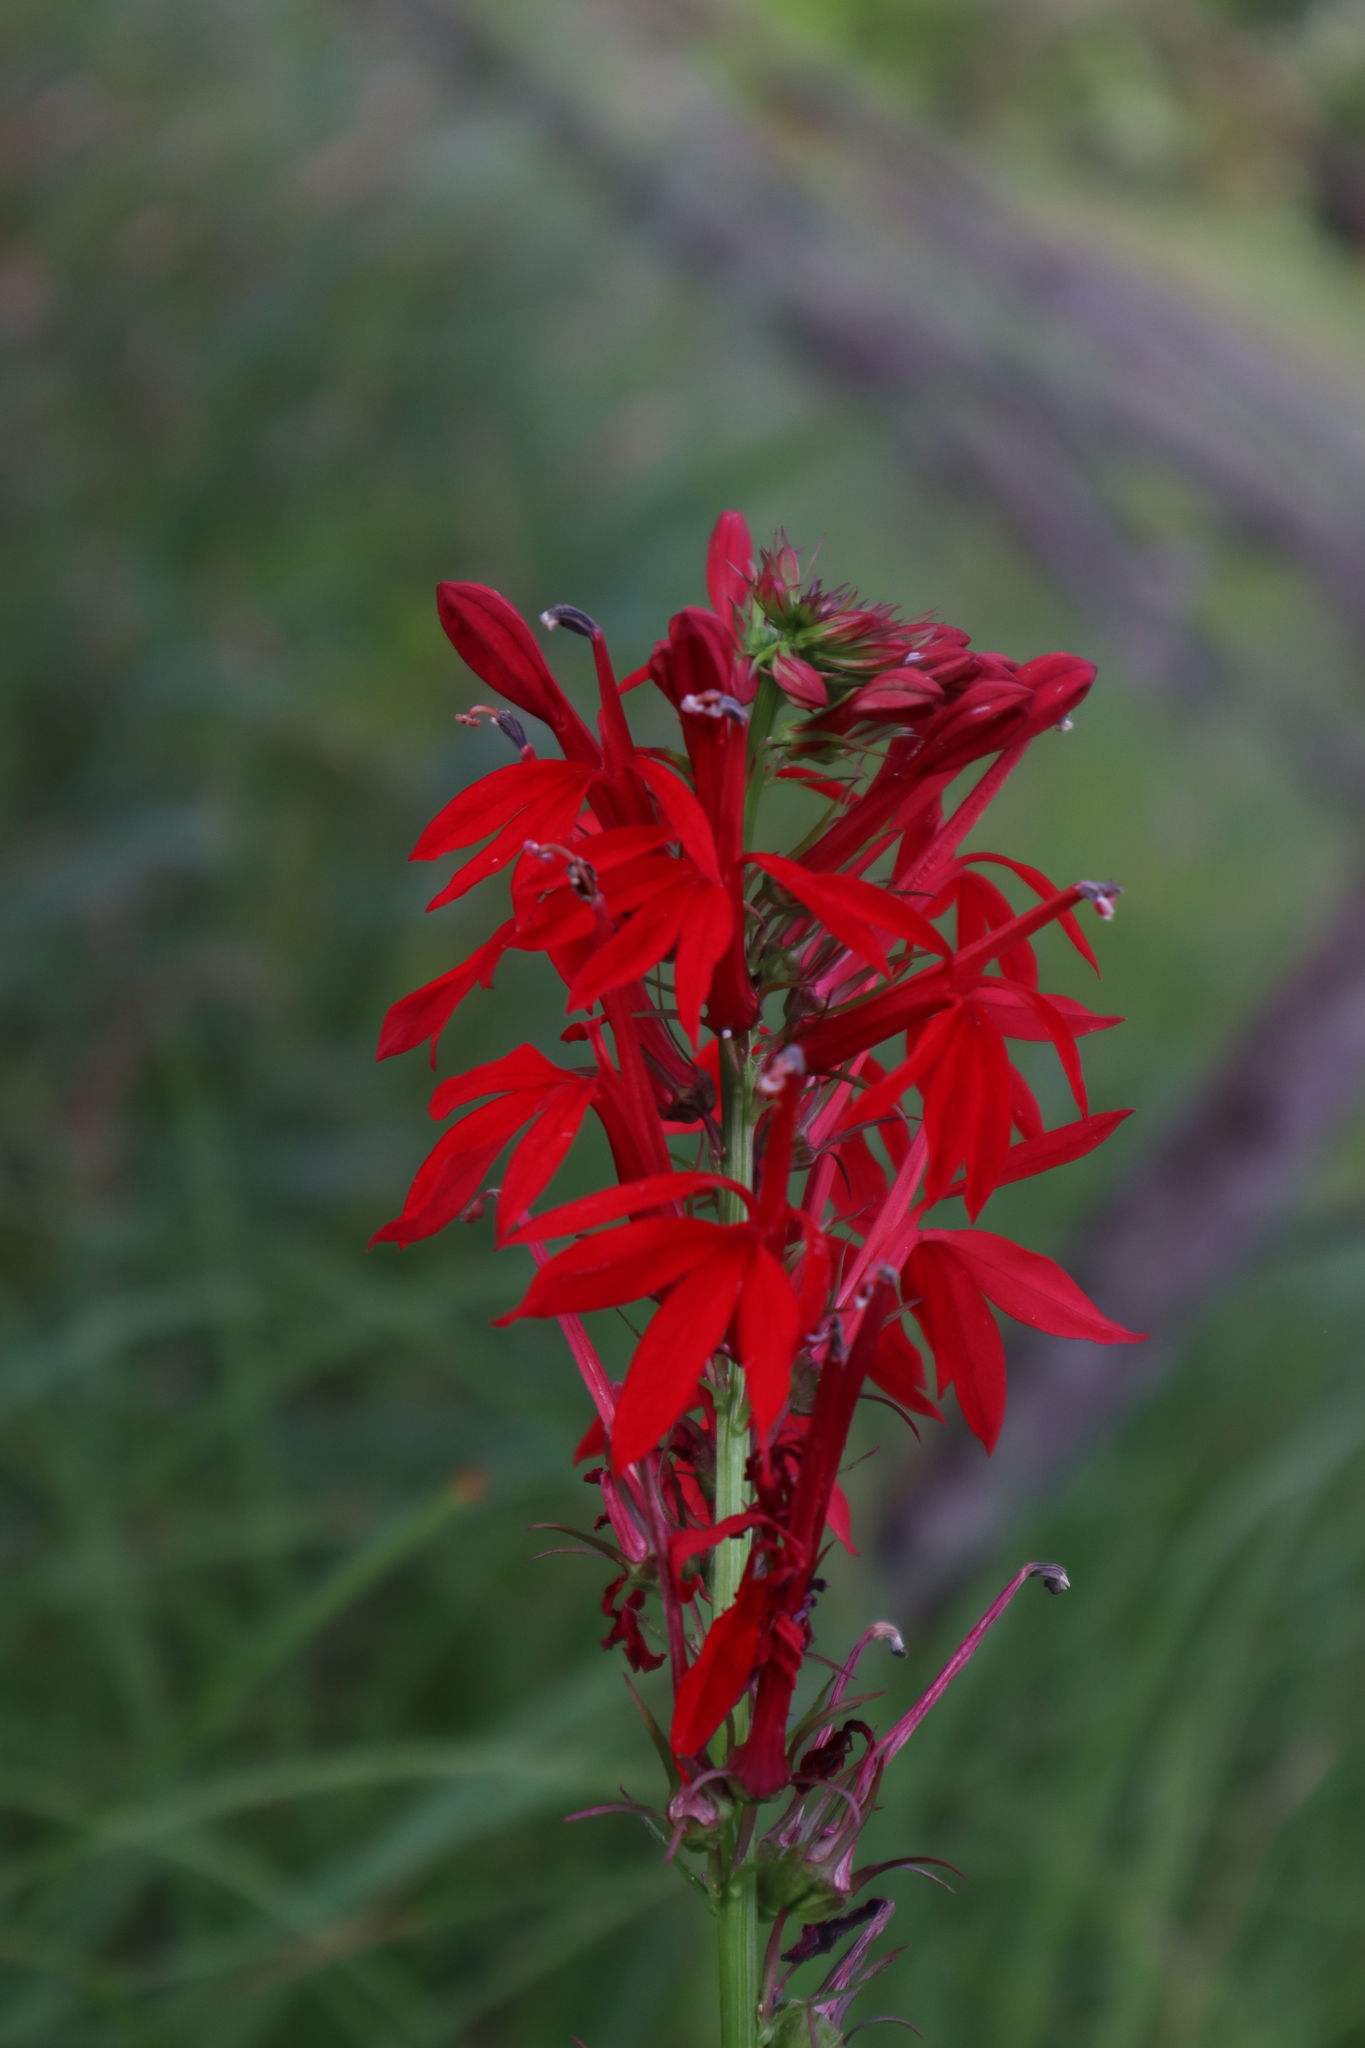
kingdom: Plantae
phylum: Tracheophyta
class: Magnoliopsida
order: Asterales
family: Campanulaceae
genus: Lobelia
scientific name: Lobelia cardinalis
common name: Cardinal flower
